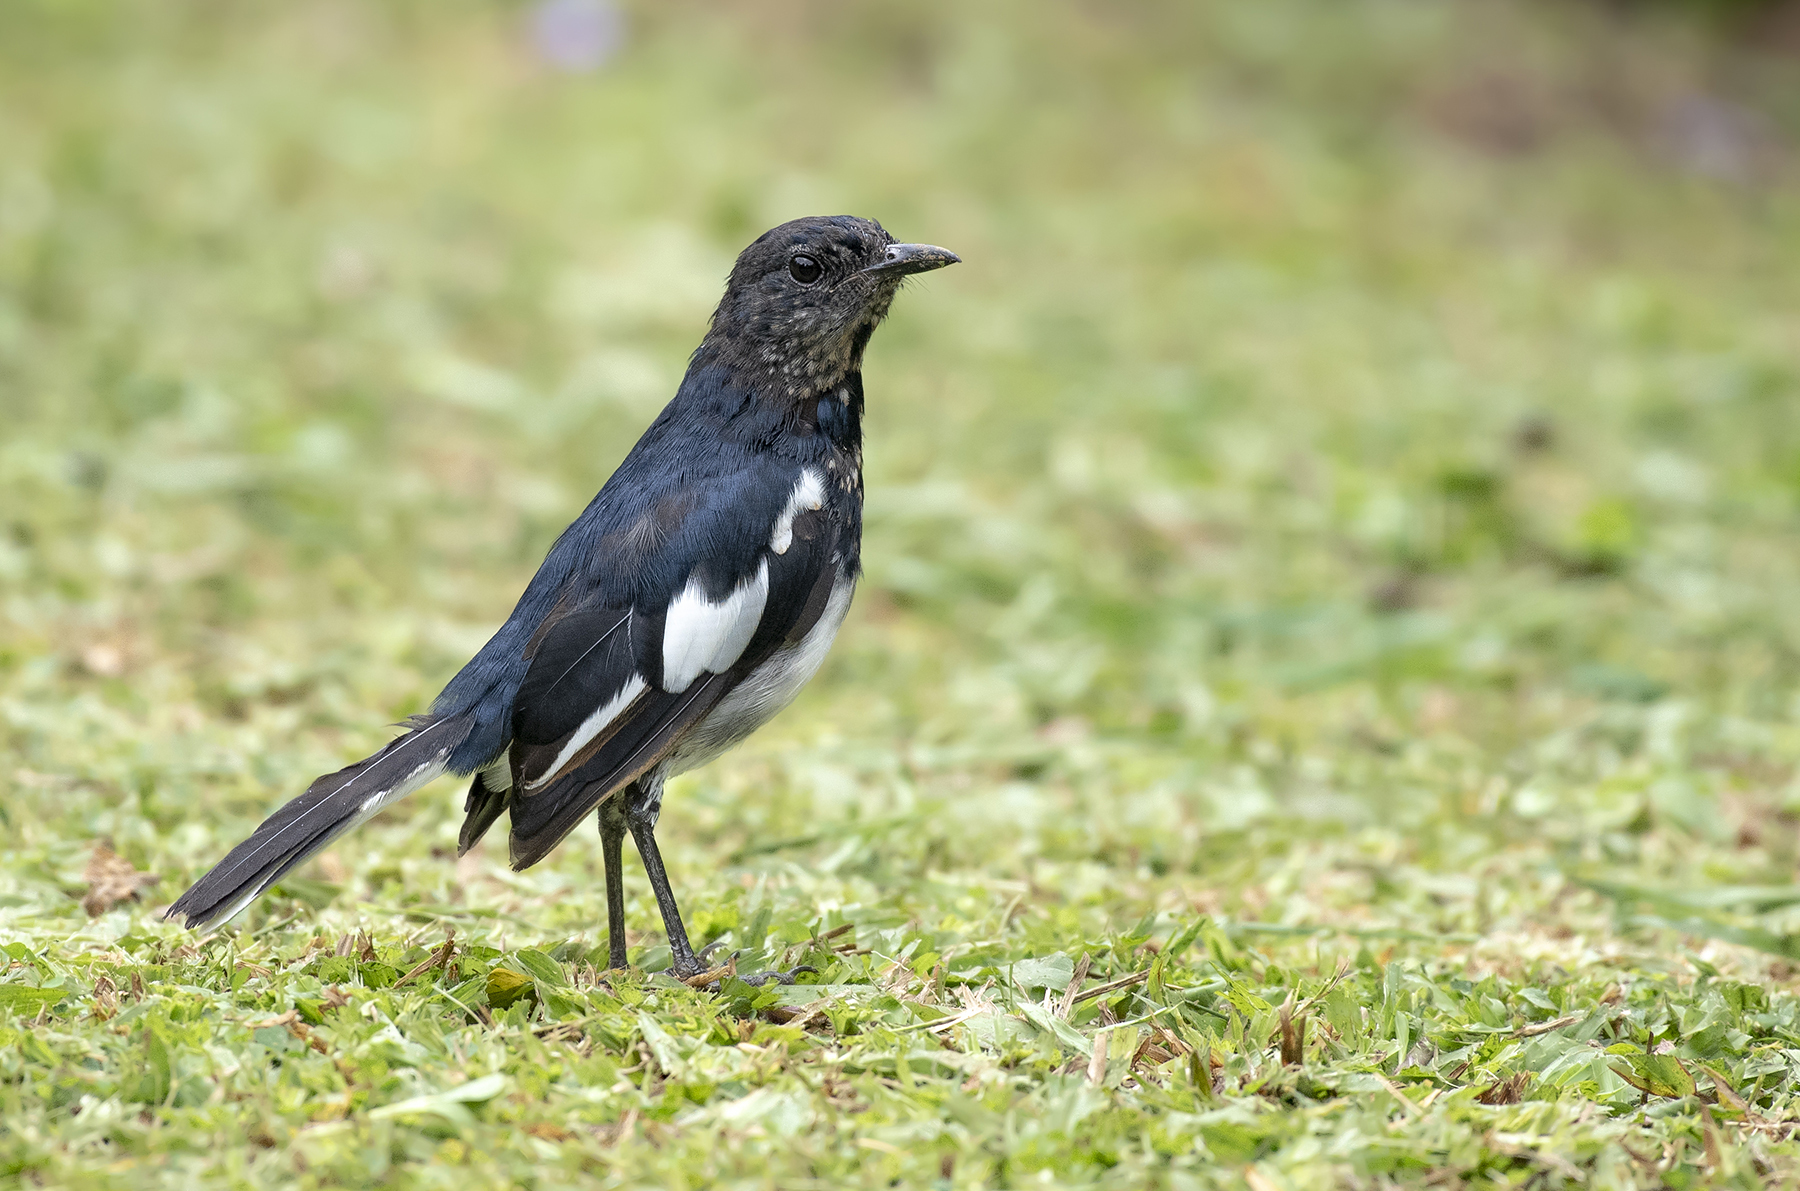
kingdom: Animalia
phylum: Chordata
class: Aves
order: Passeriformes
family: Muscicapidae
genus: Copsychus
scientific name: Copsychus saularis
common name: Oriental magpie-robin
